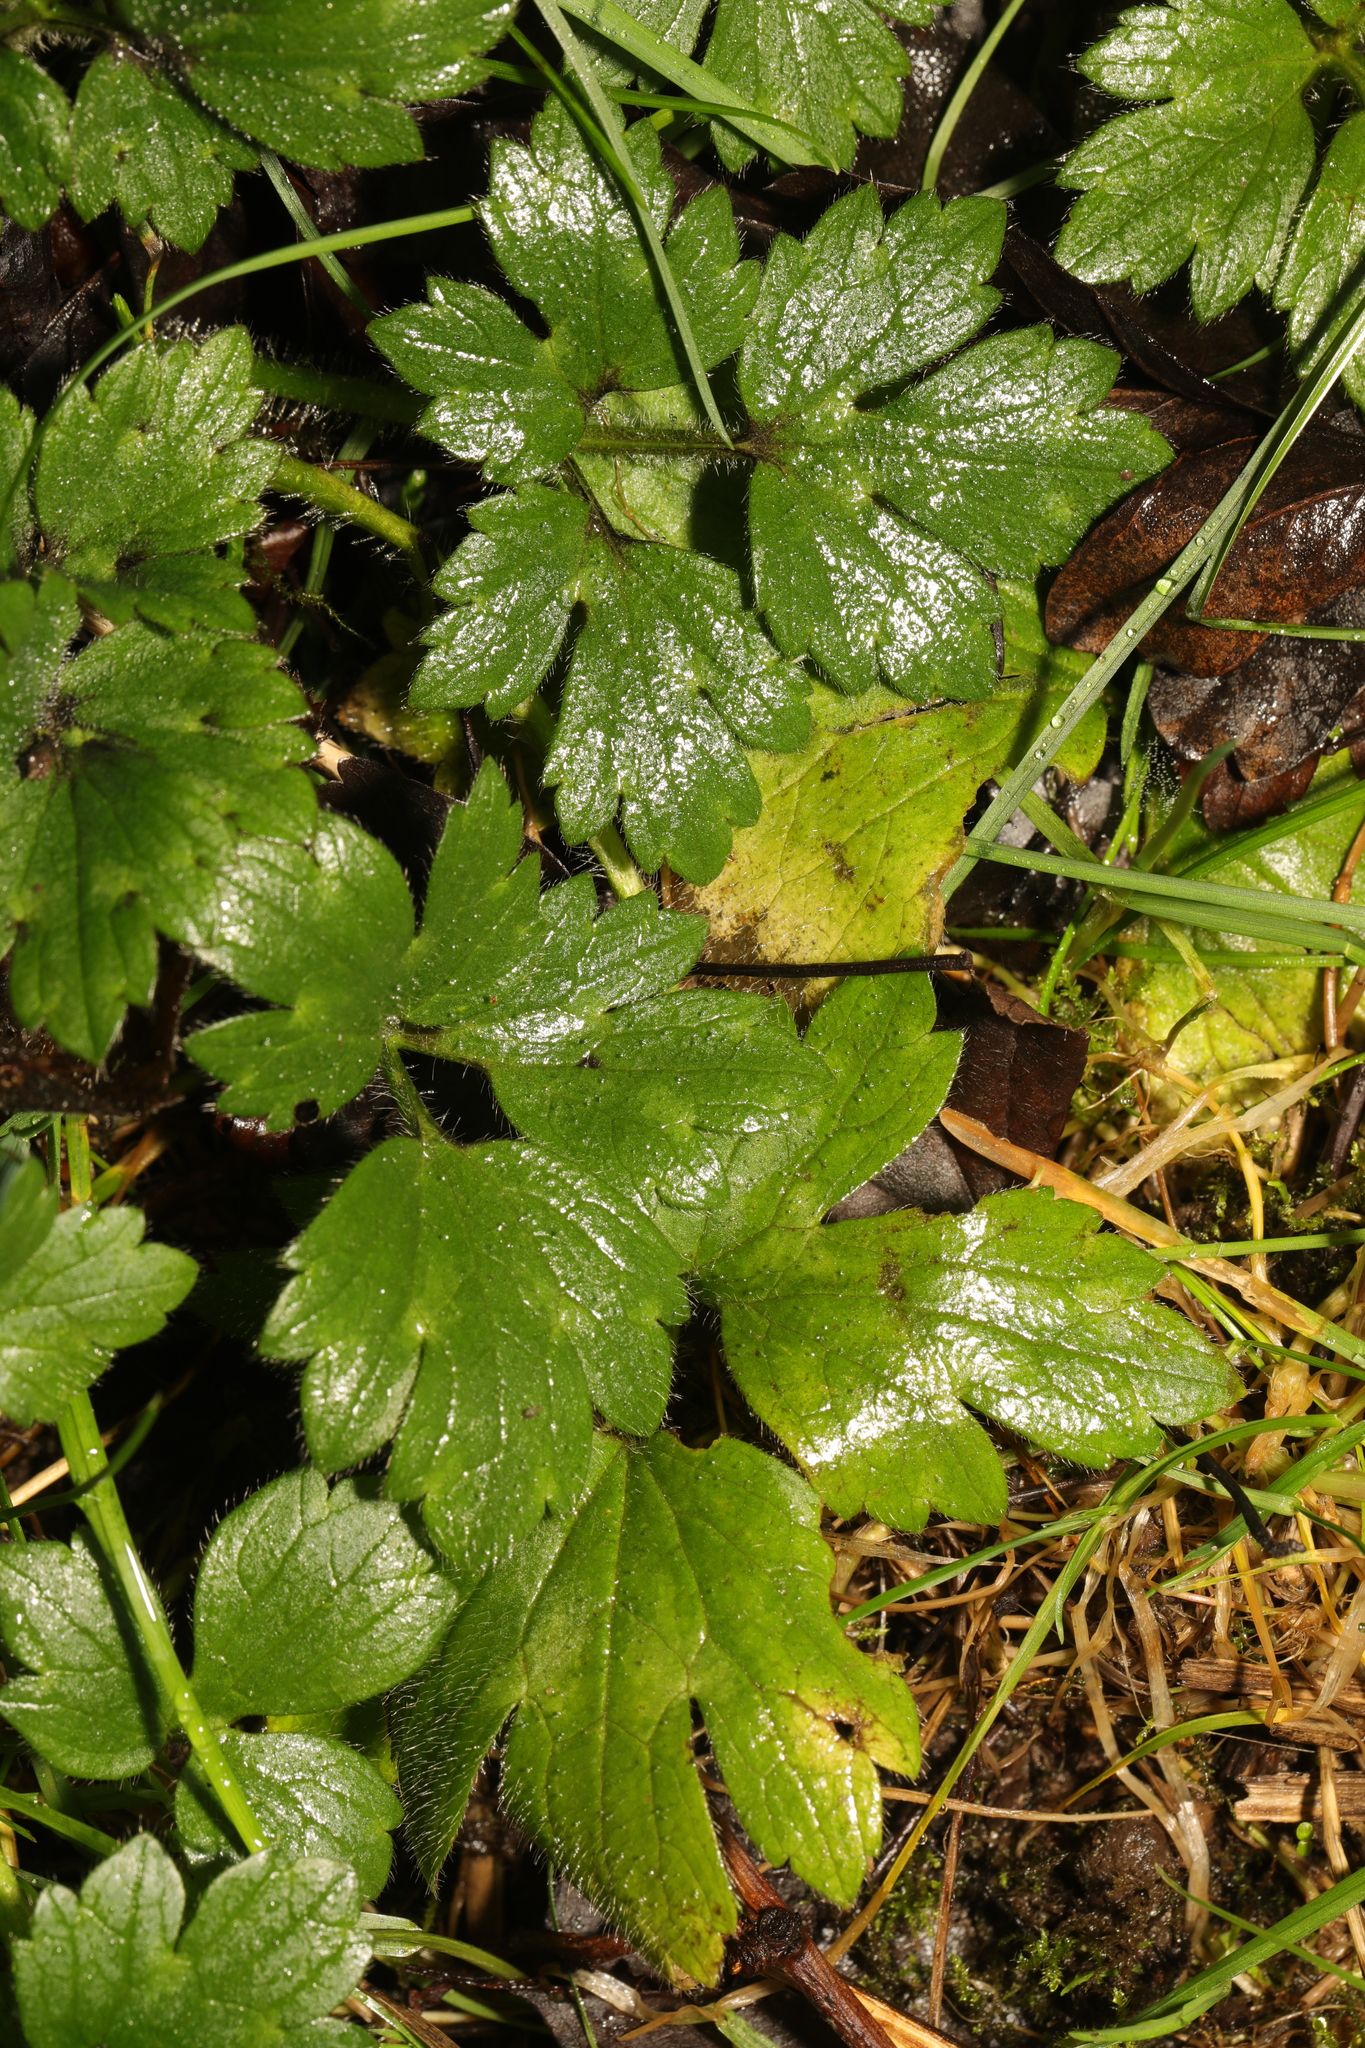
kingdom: Plantae
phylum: Tracheophyta
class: Magnoliopsida
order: Ranunculales
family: Ranunculaceae
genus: Ranunculus
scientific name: Ranunculus repens
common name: Creeping buttercup
